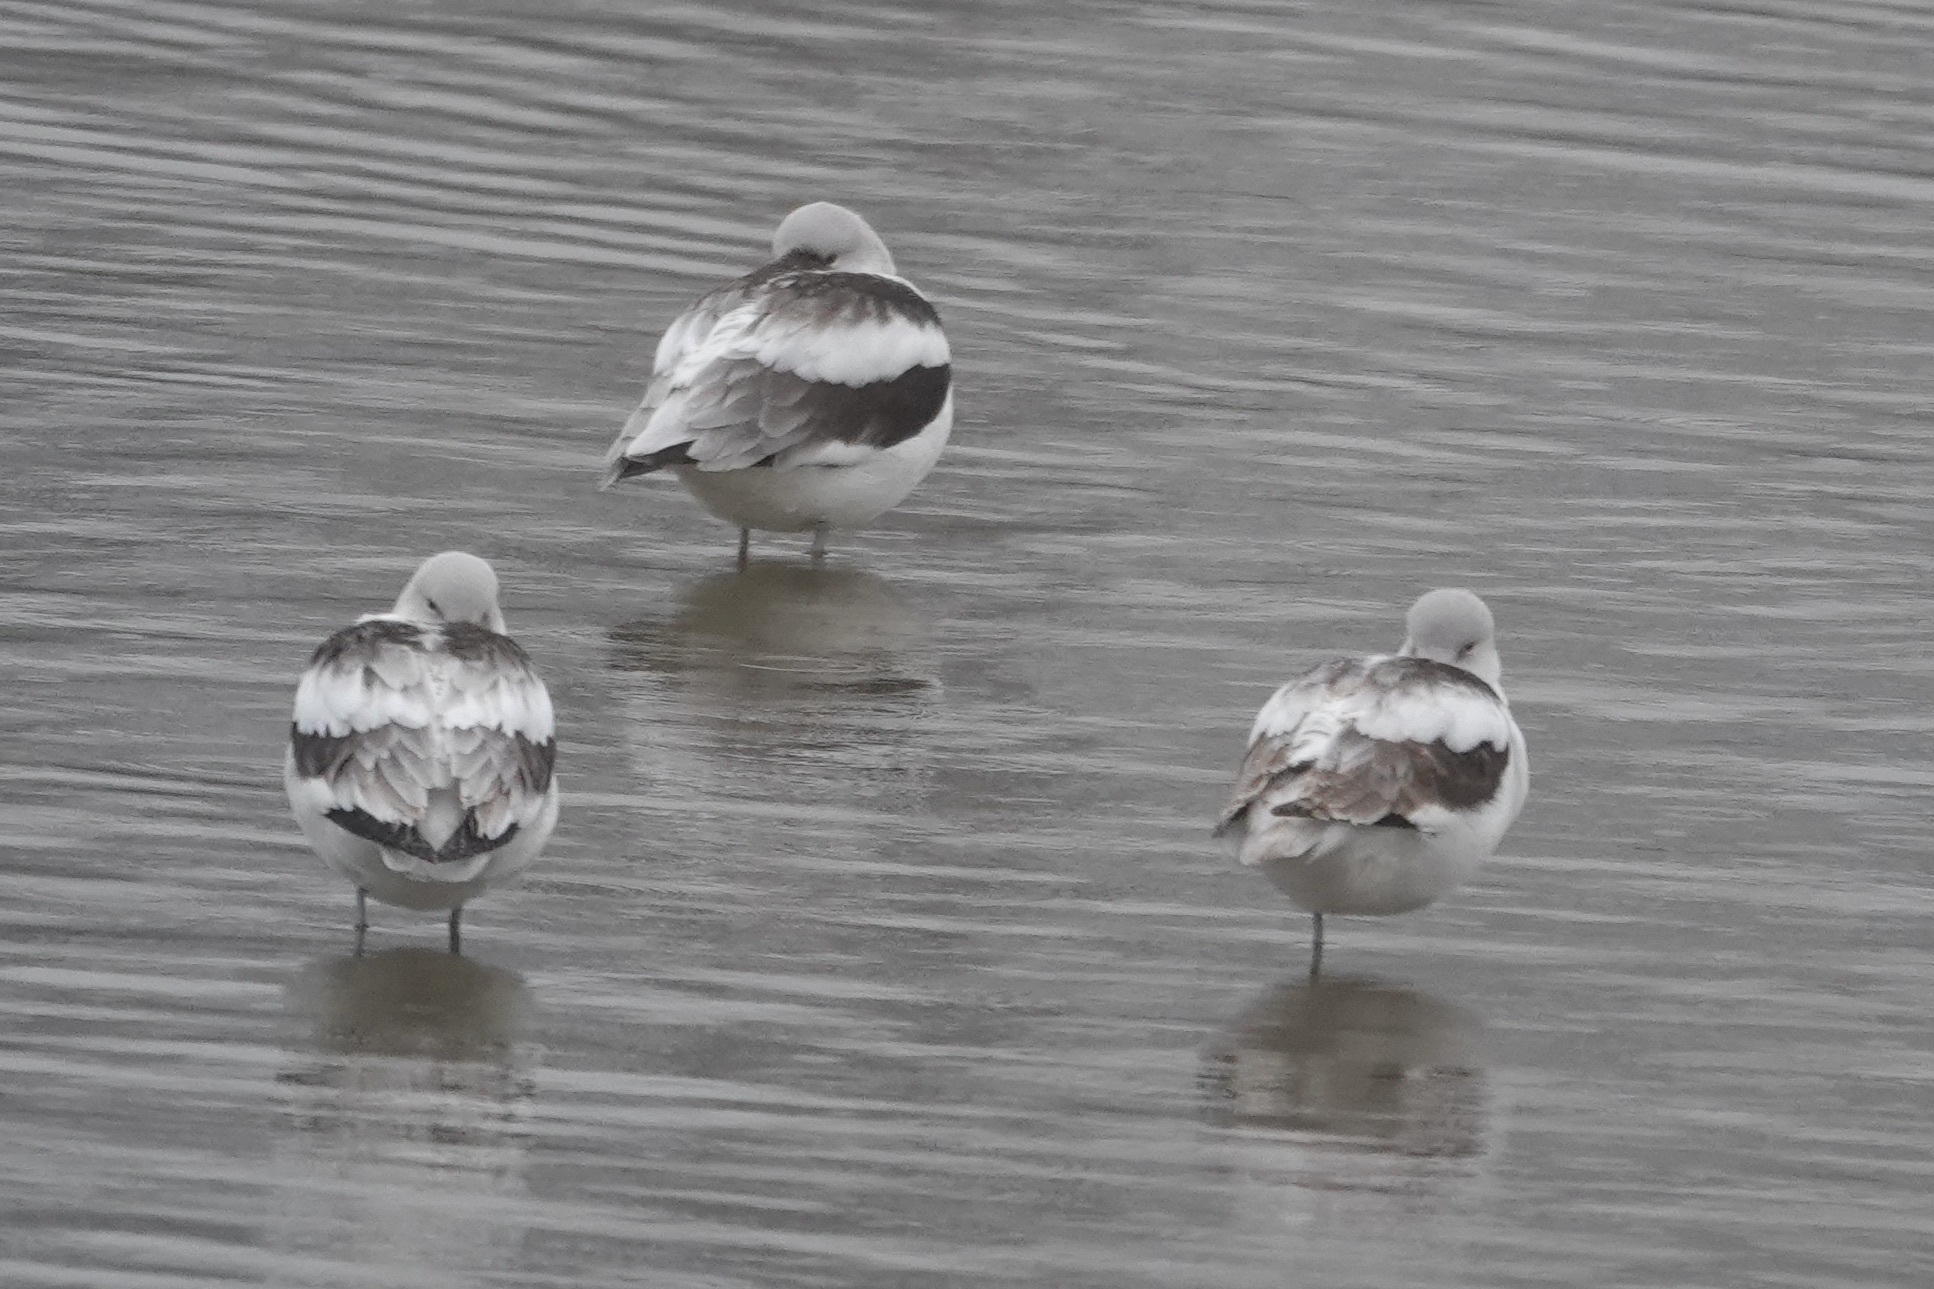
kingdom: Animalia
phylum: Chordata
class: Aves
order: Charadriiformes
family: Recurvirostridae
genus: Recurvirostra
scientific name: Recurvirostra americana
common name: American avocet
